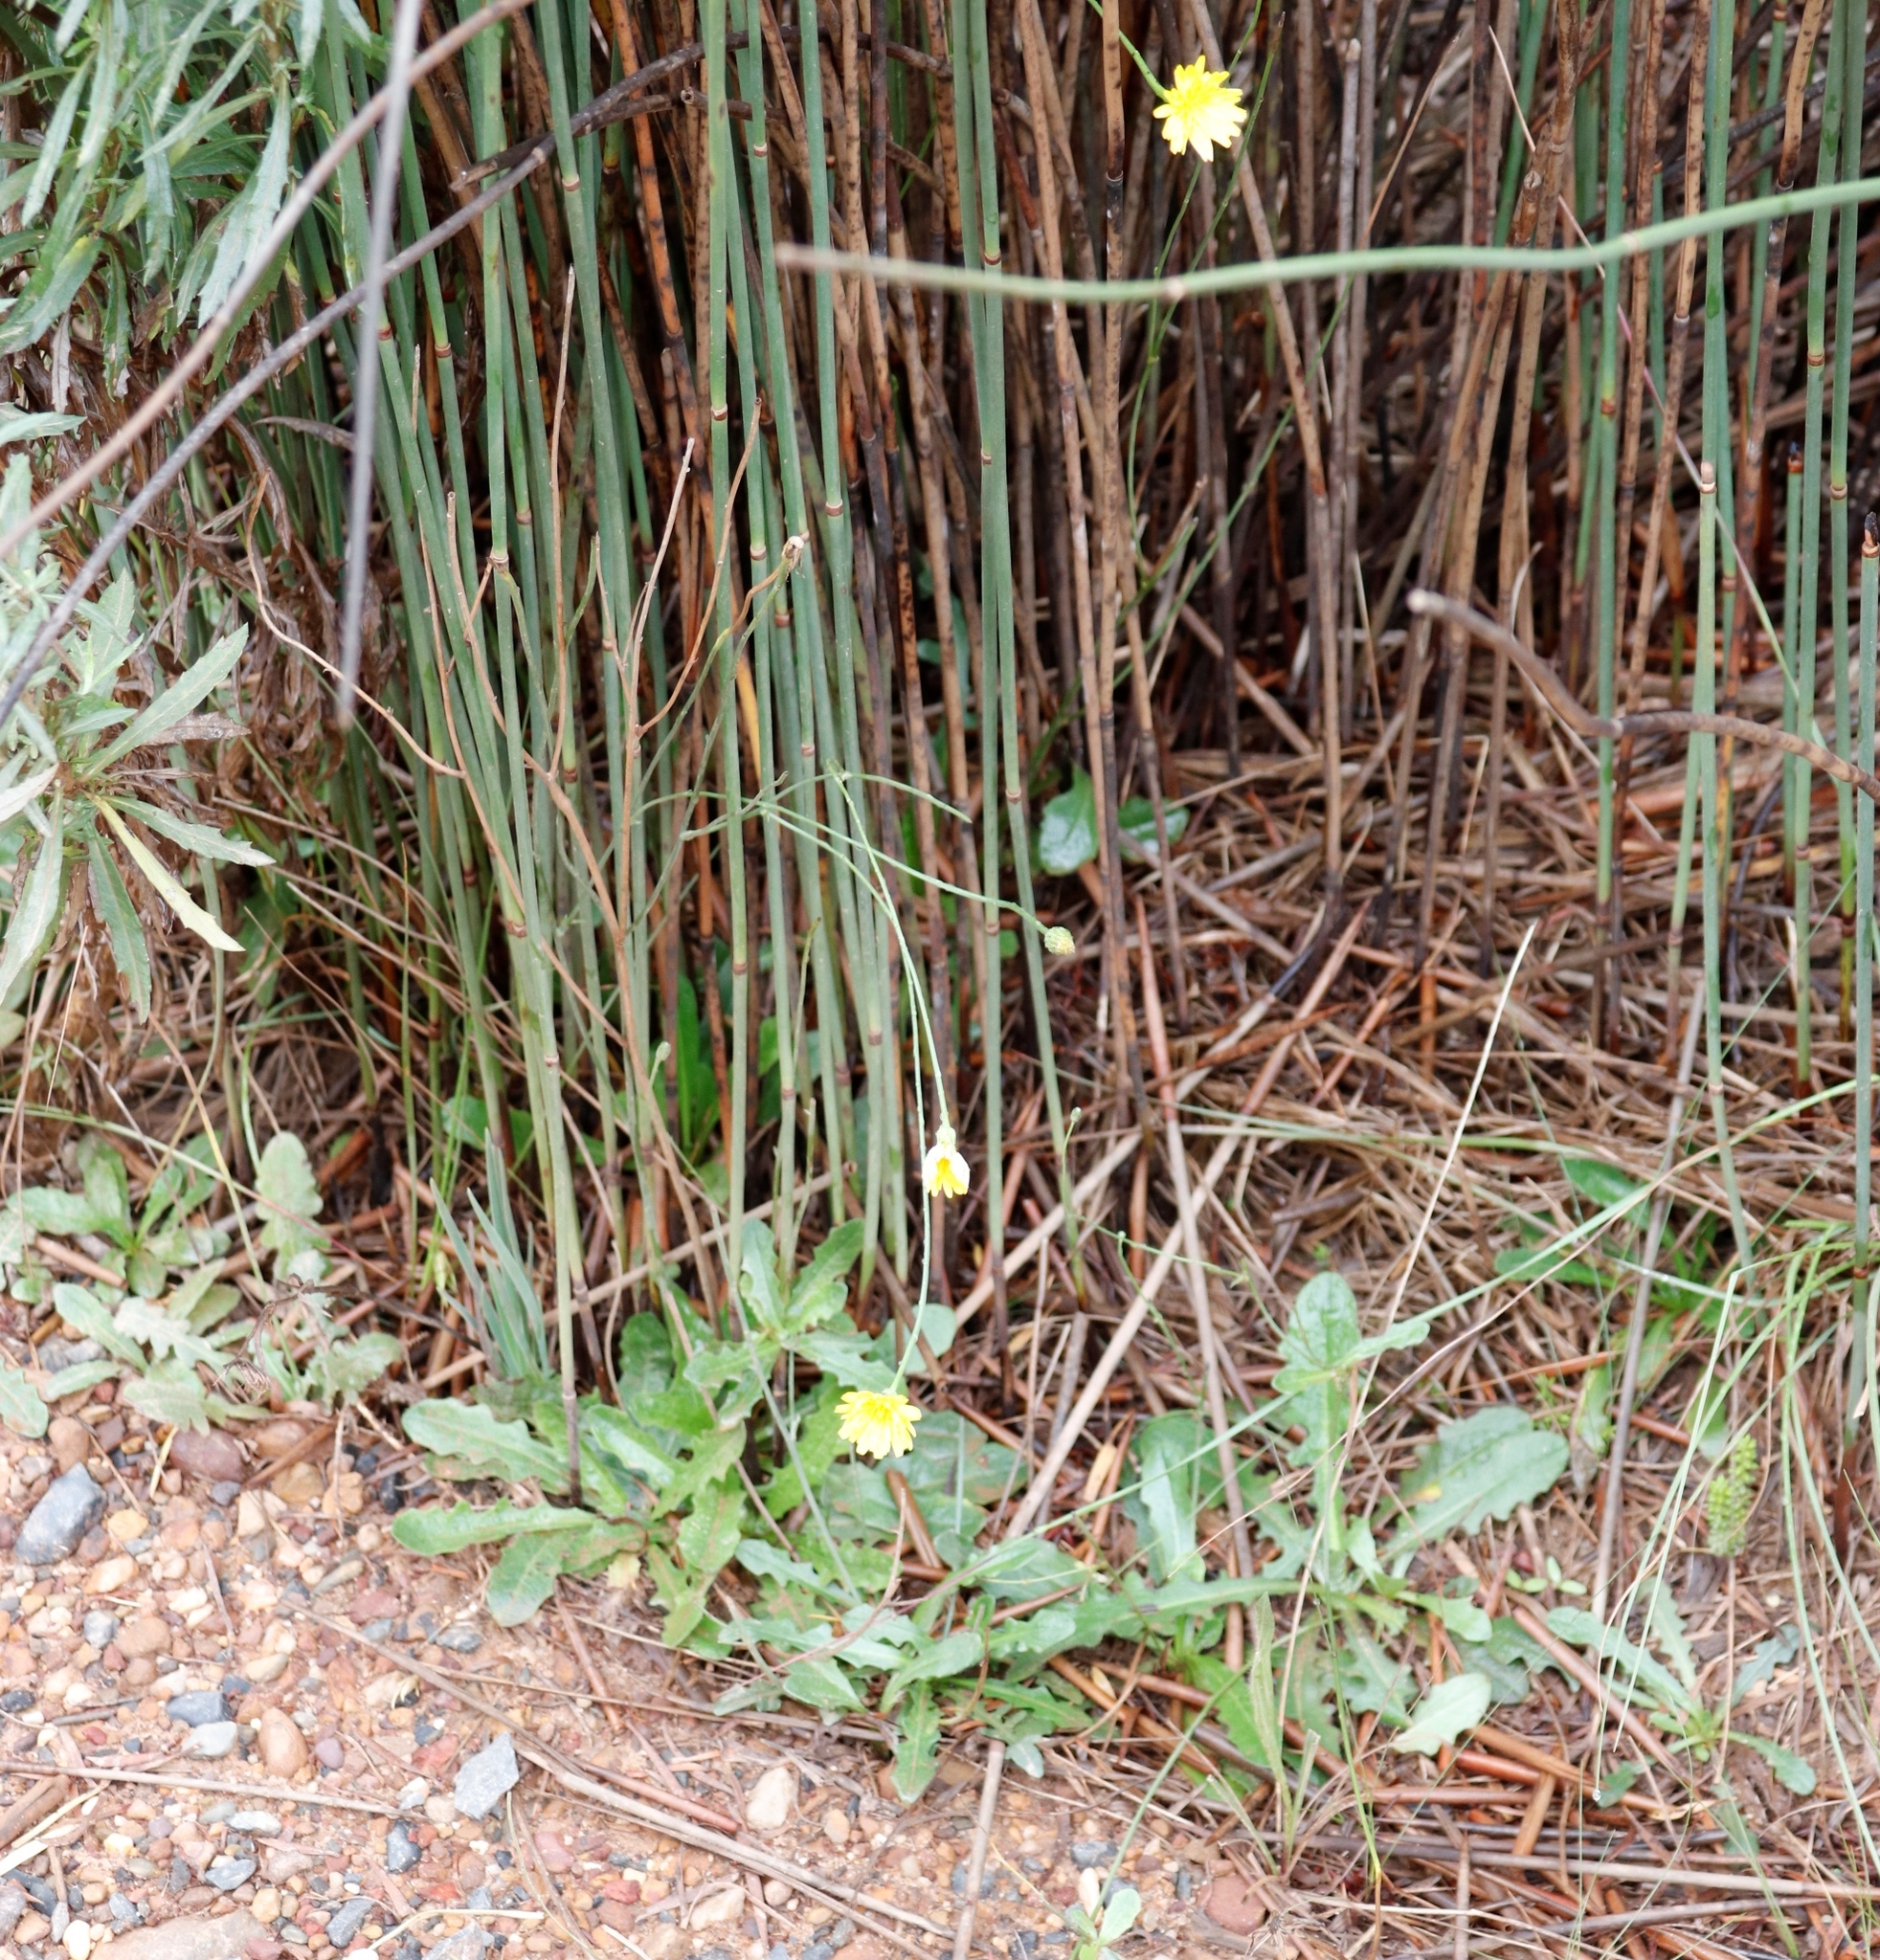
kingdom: Plantae
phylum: Tracheophyta
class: Magnoliopsida
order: Asterales
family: Asteraceae
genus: Hypochaeris
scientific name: Hypochaeris radicata
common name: Flatweed
